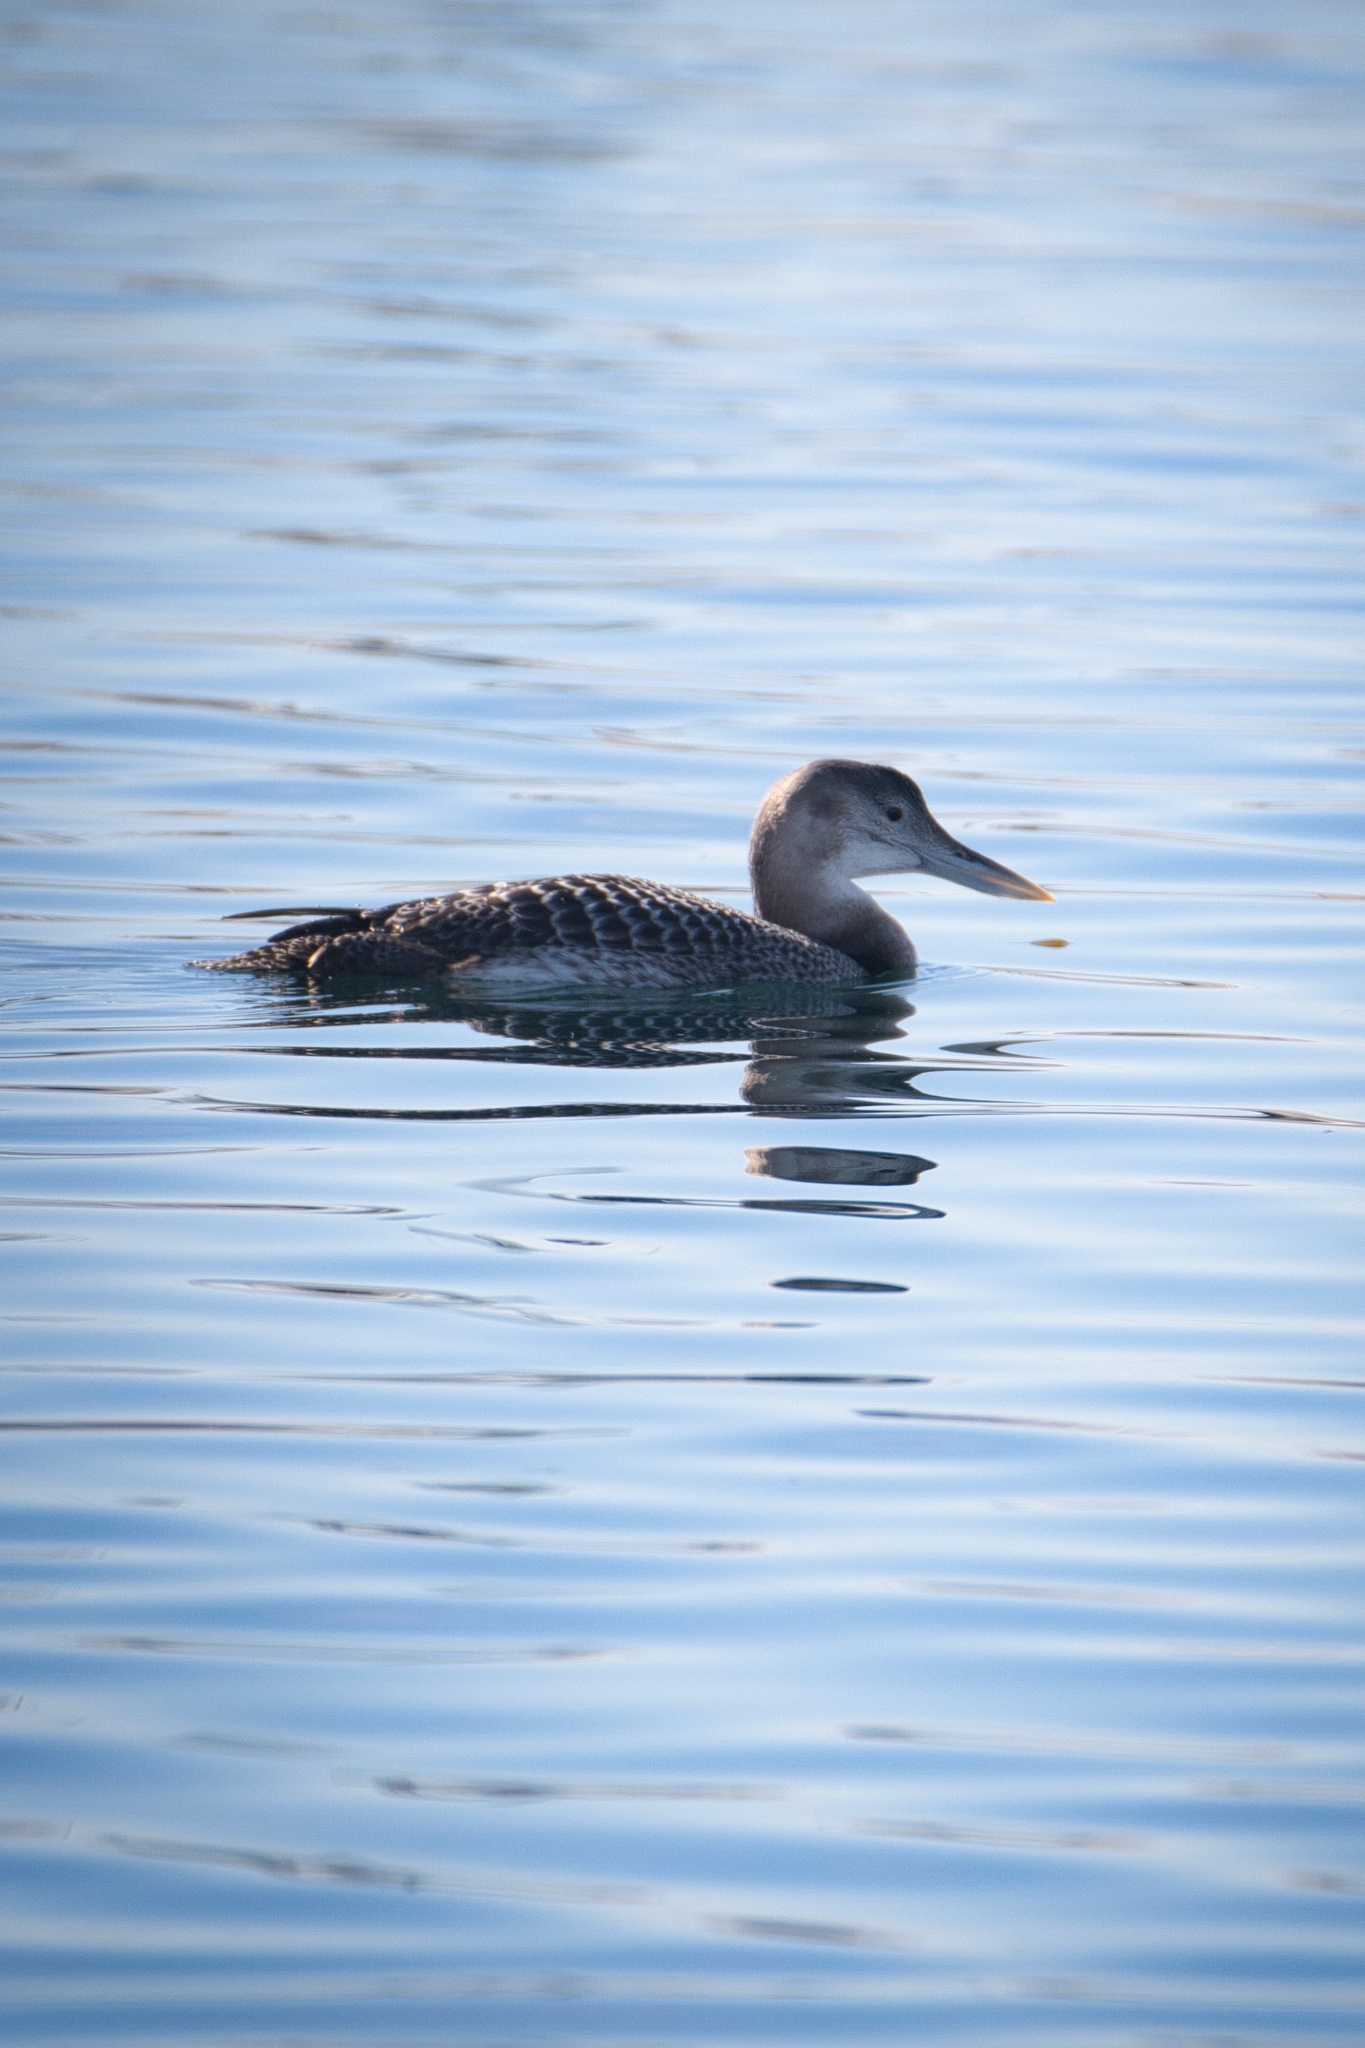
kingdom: Animalia
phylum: Chordata
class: Aves
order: Gaviiformes
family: Gaviidae
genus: Gavia
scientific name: Gavia adamsii
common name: Yellow-billed loon
